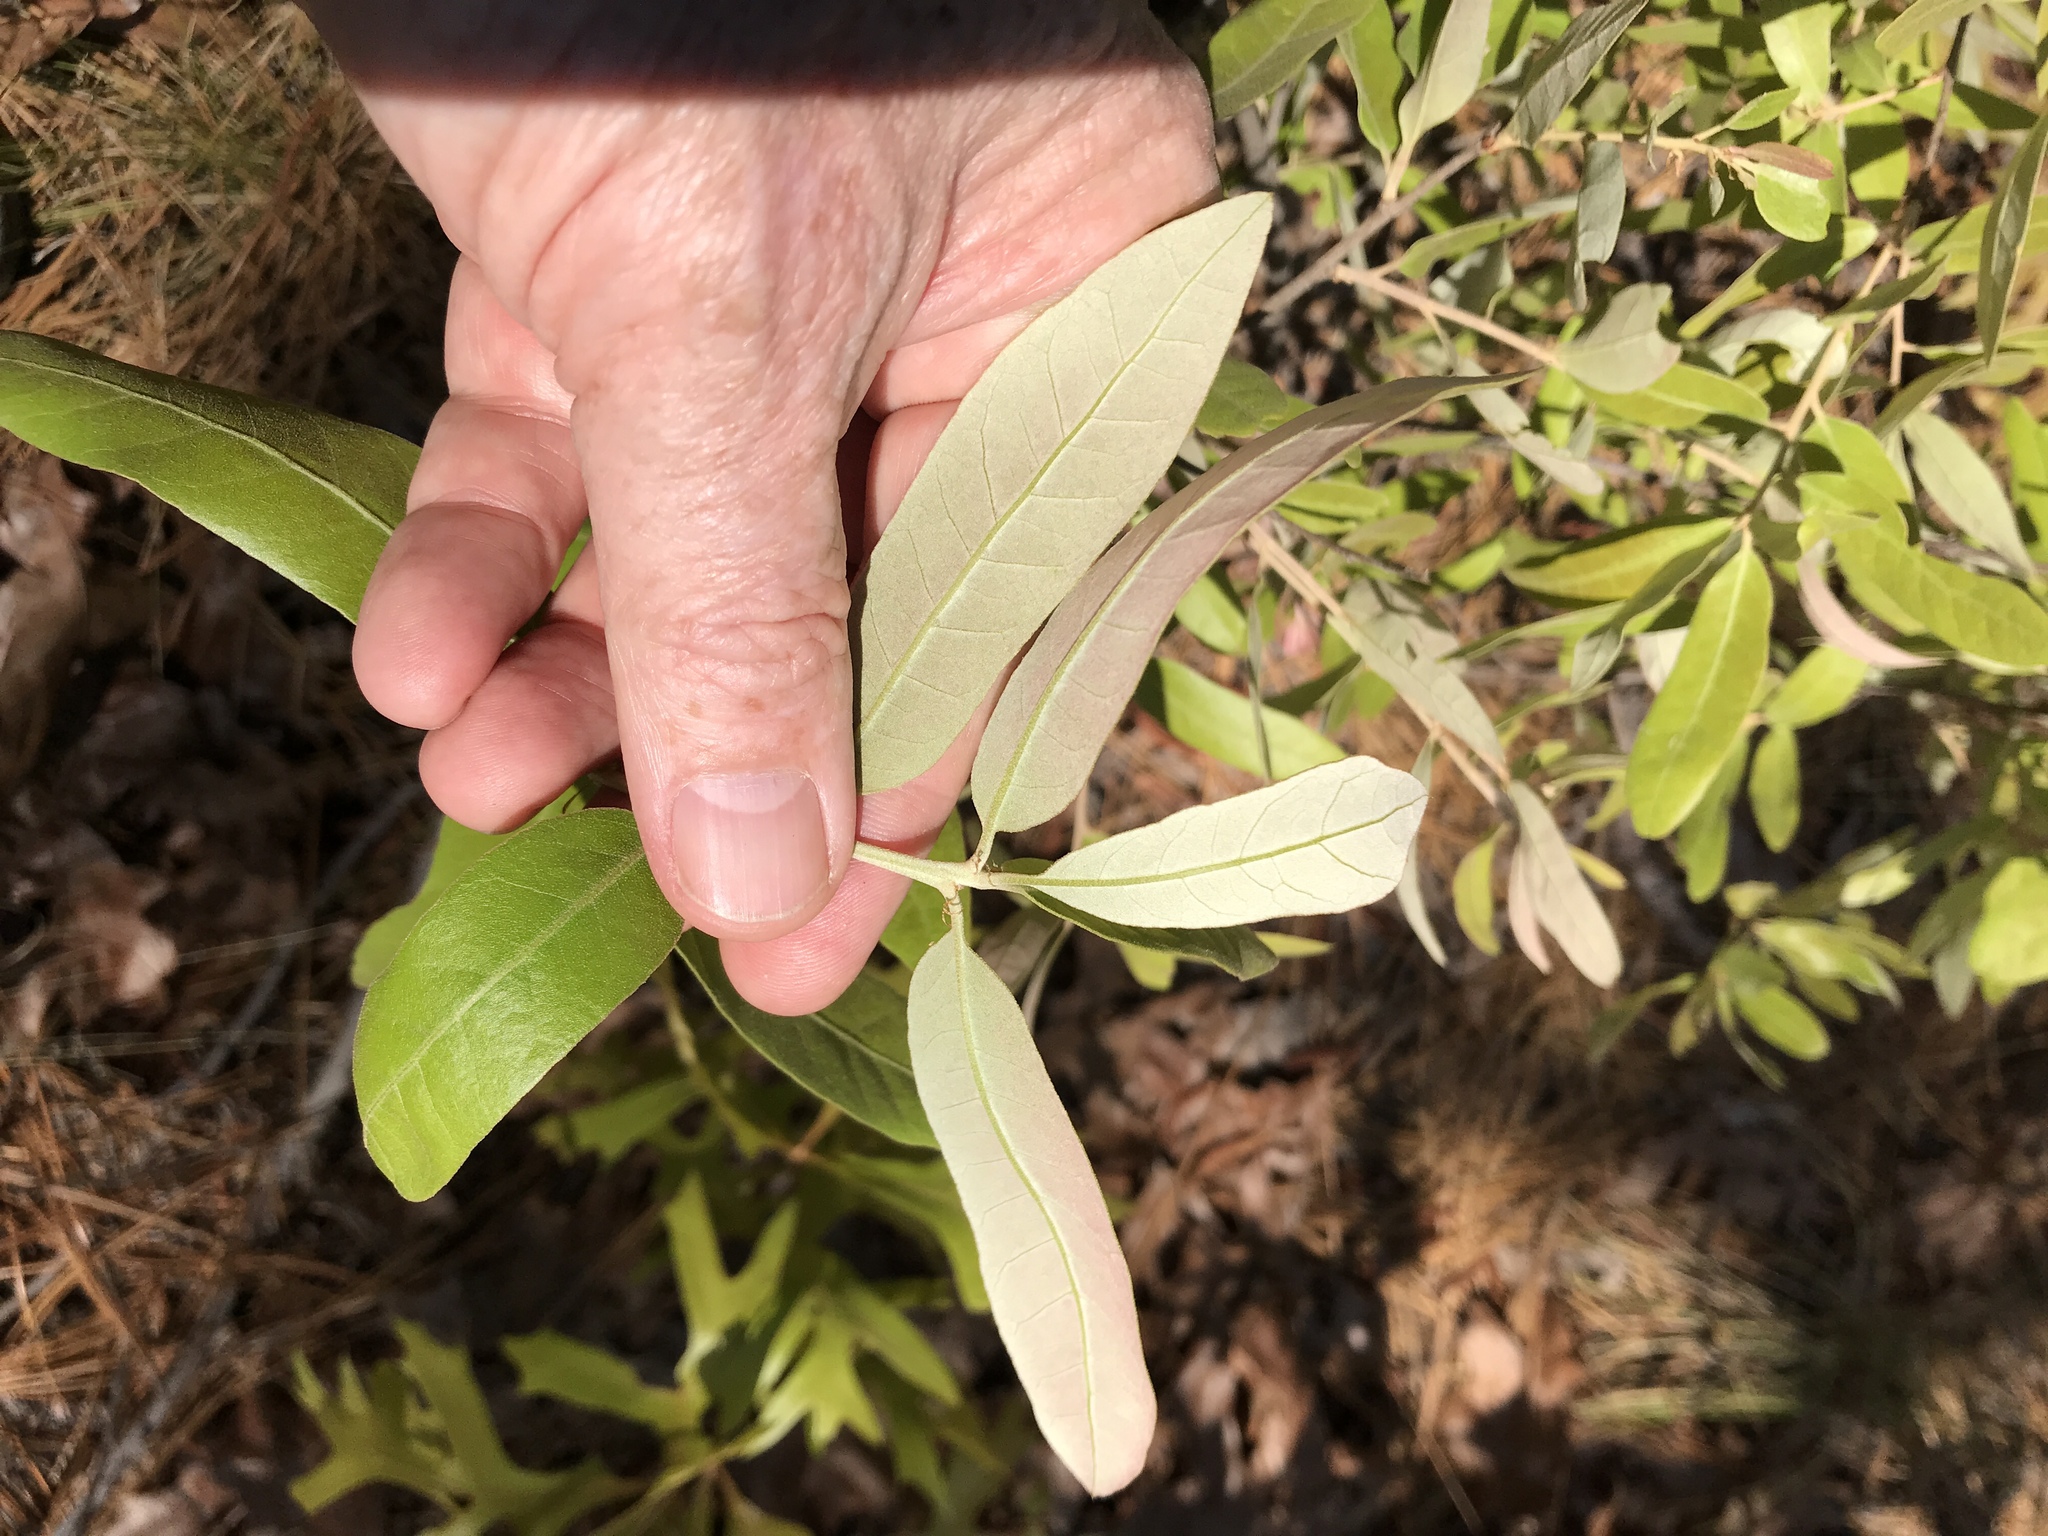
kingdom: Plantae
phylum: Tracheophyta
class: Magnoliopsida
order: Fagales
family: Fagaceae
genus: Quercus
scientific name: Quercus incana
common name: Bluejack oak
